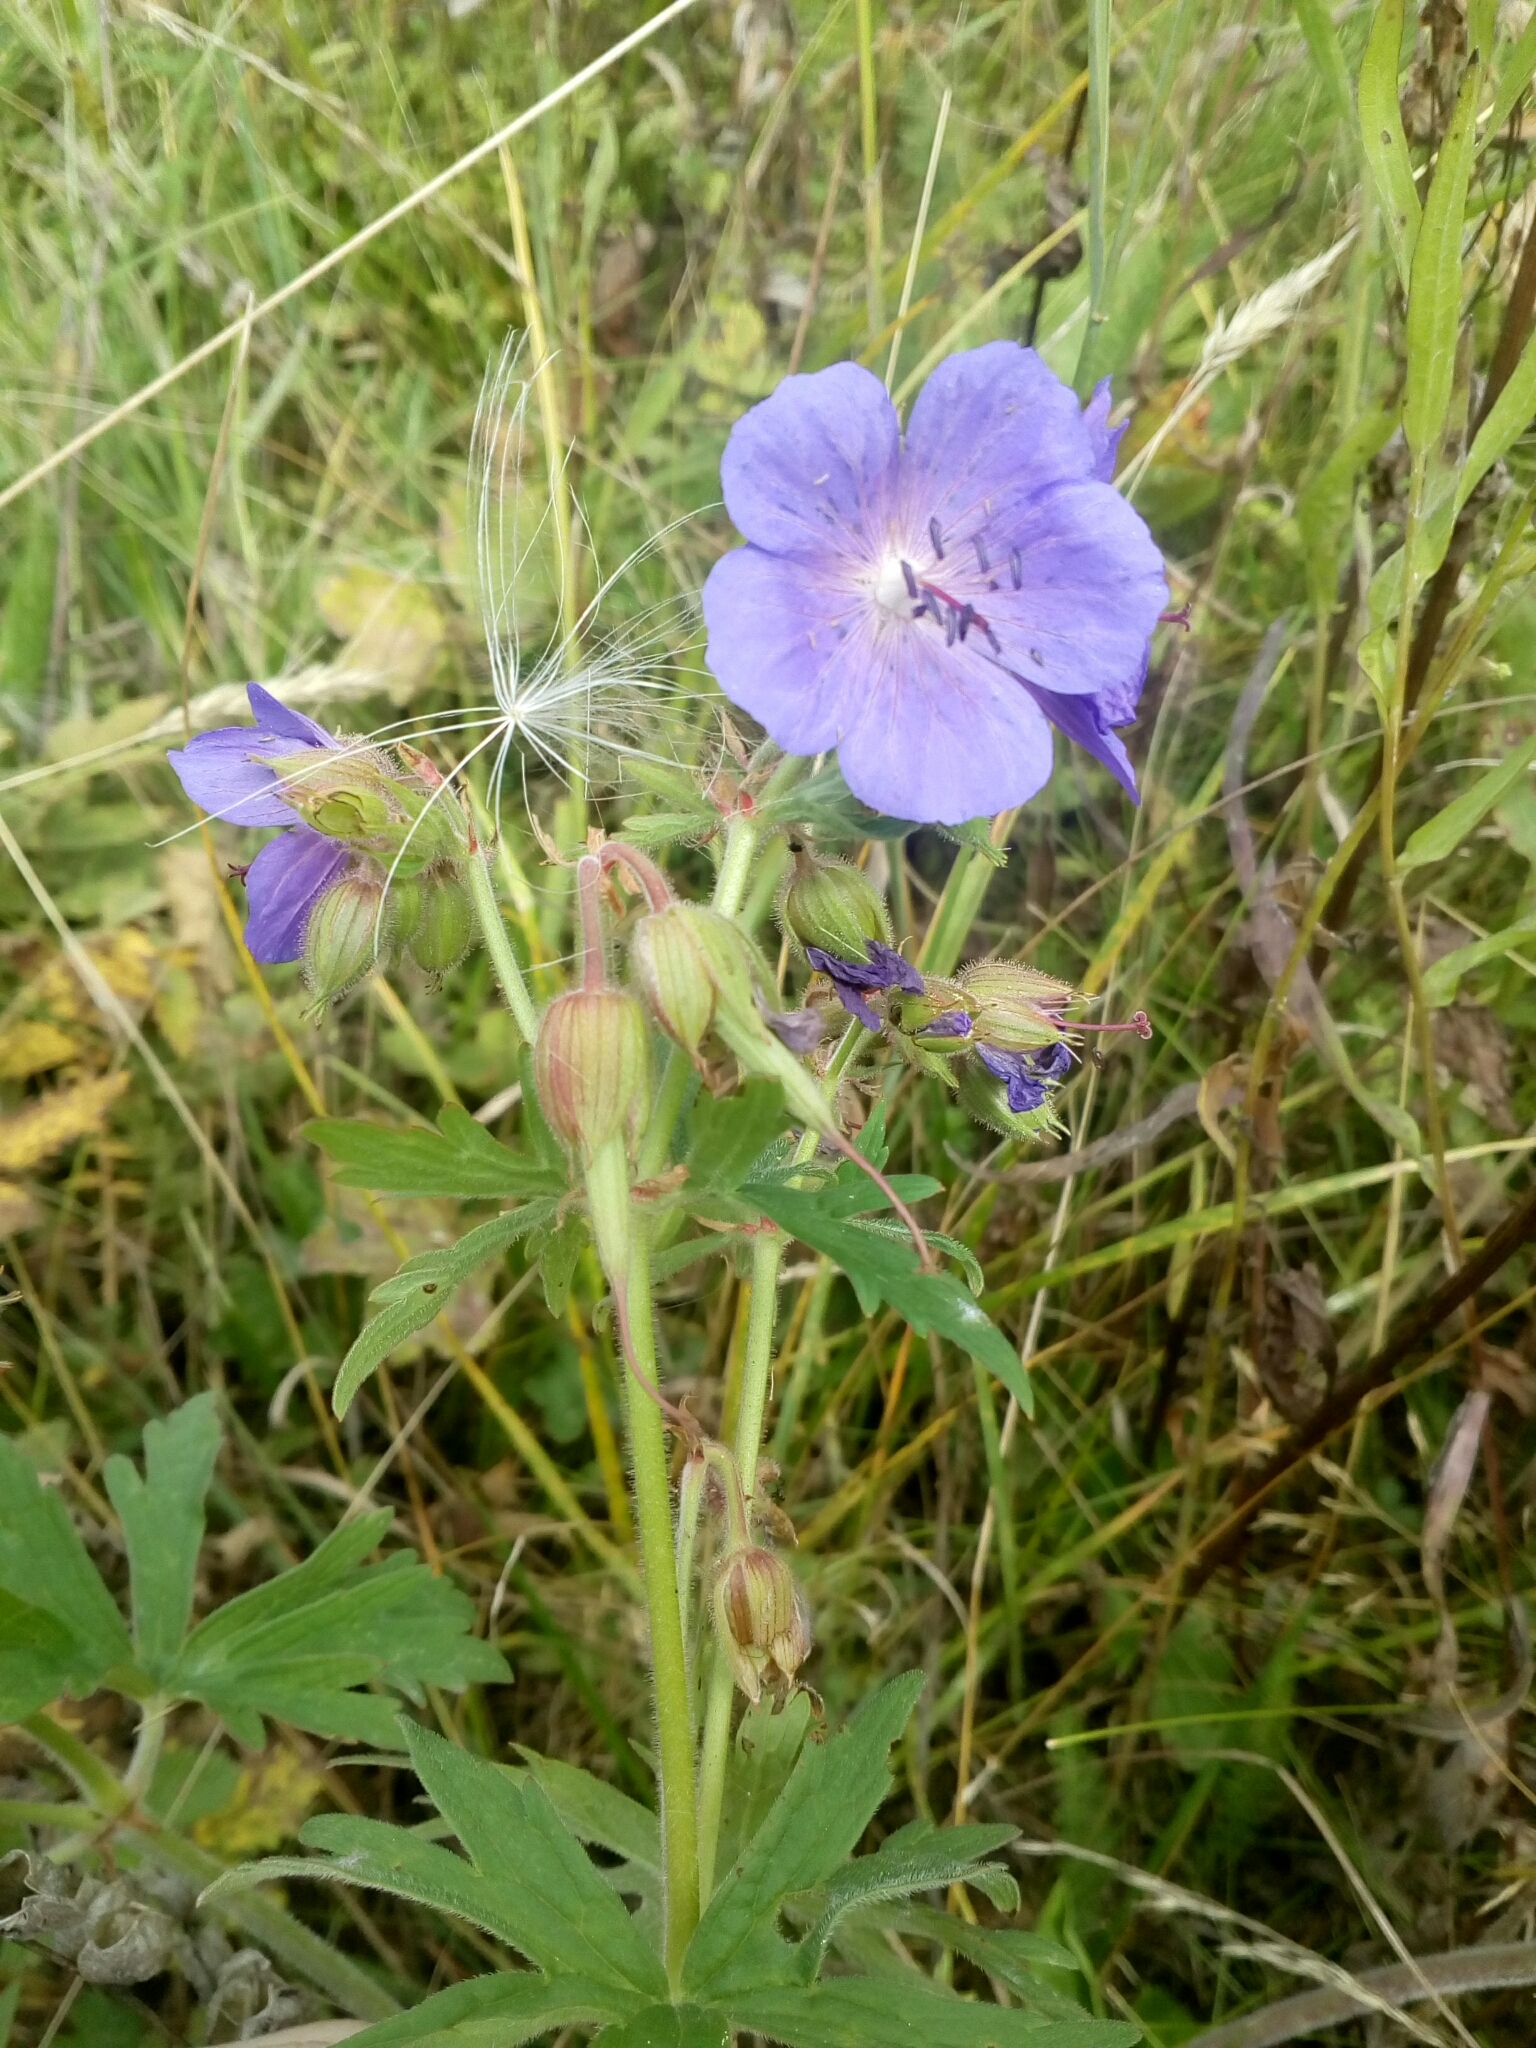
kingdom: Plantae
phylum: Tracheophyta
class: Magnoliopsida
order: Geraniales
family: Geraniaceae
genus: Geranium
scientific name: Geranium pratense
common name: Meadow crane's-bill
